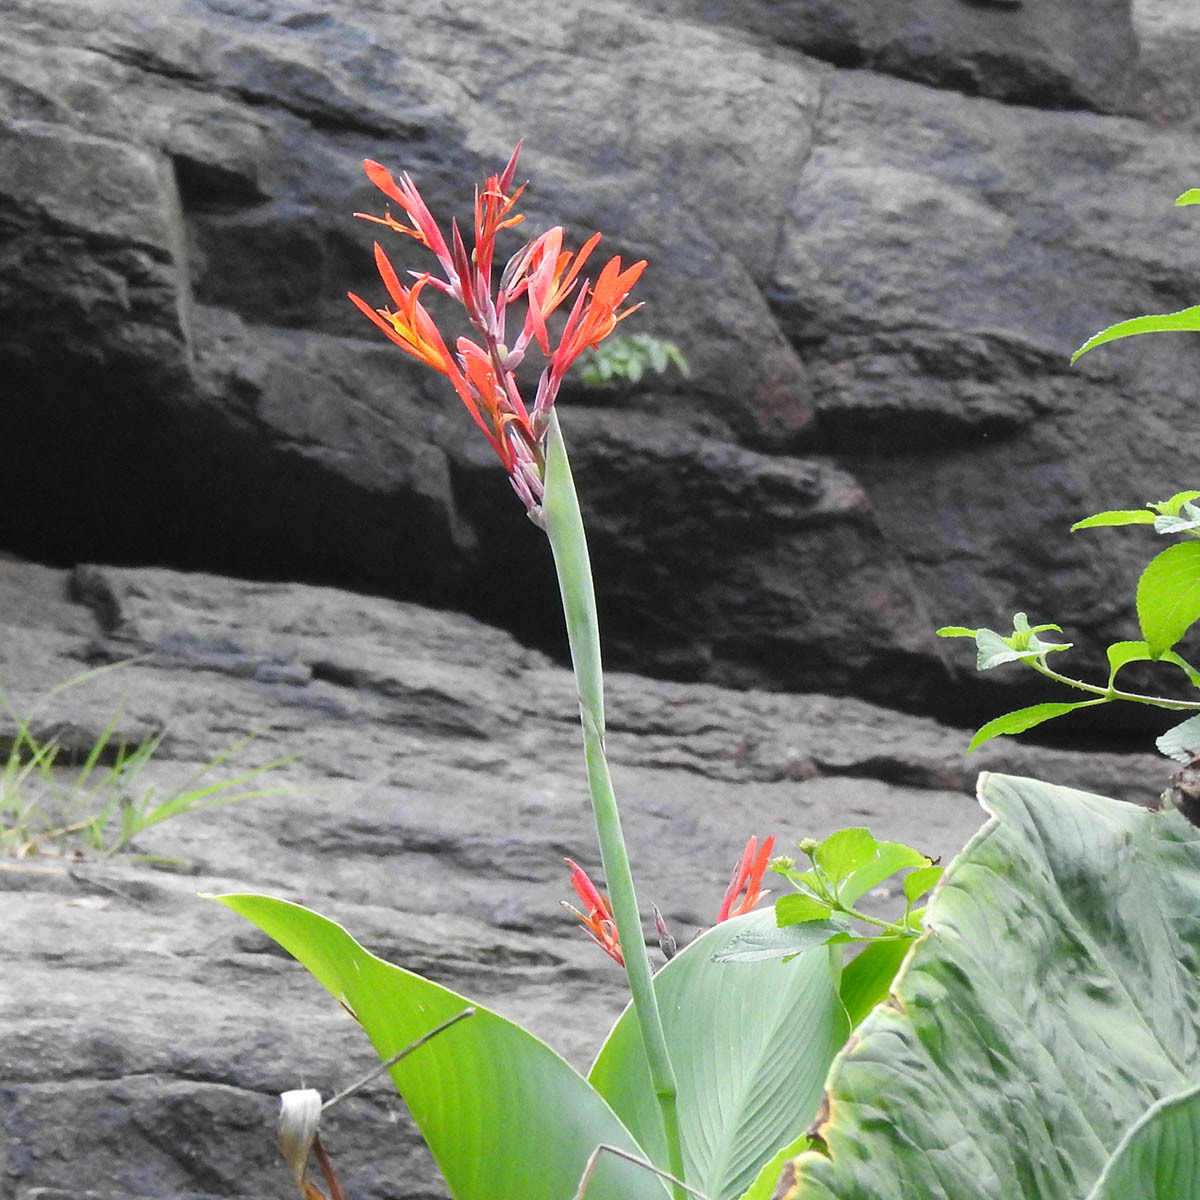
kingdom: Plantae
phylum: Tracheophyta
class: Liliopsida
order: Zingiberales
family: Cannaceae
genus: Canna
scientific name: Canna indica
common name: Indian shot
